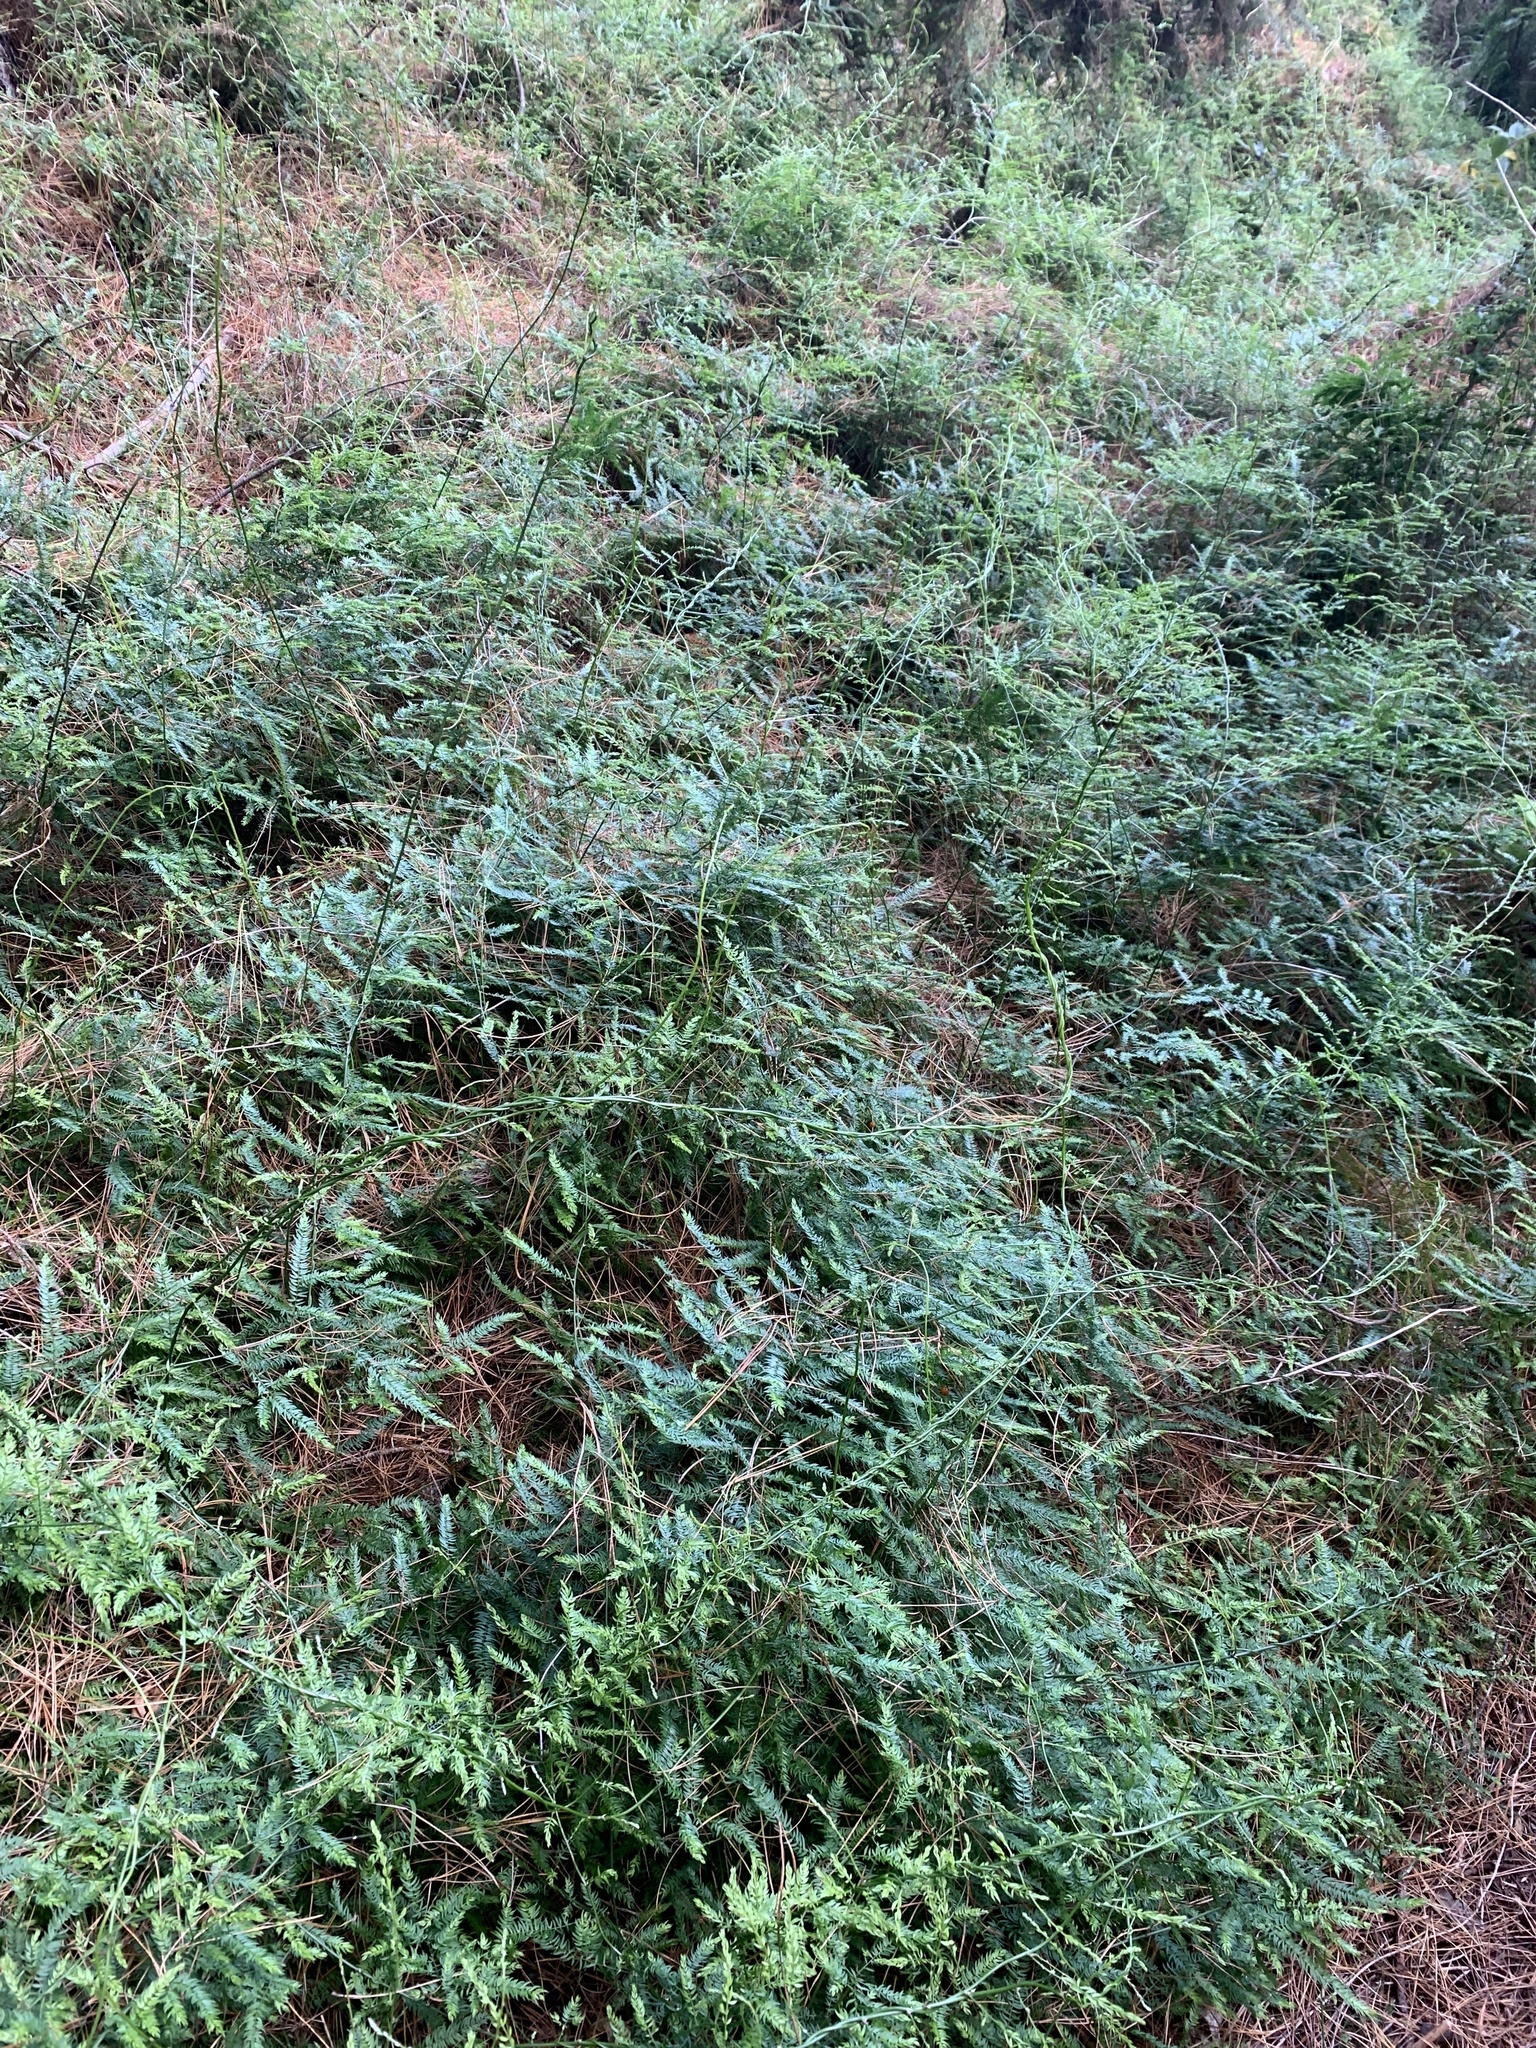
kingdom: Plantae
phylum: Tracheophyta
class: Liliopsida
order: Asparagales
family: Asparagaceae
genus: Asparagus
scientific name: Asparagus scandens
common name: Asparagus-fern
